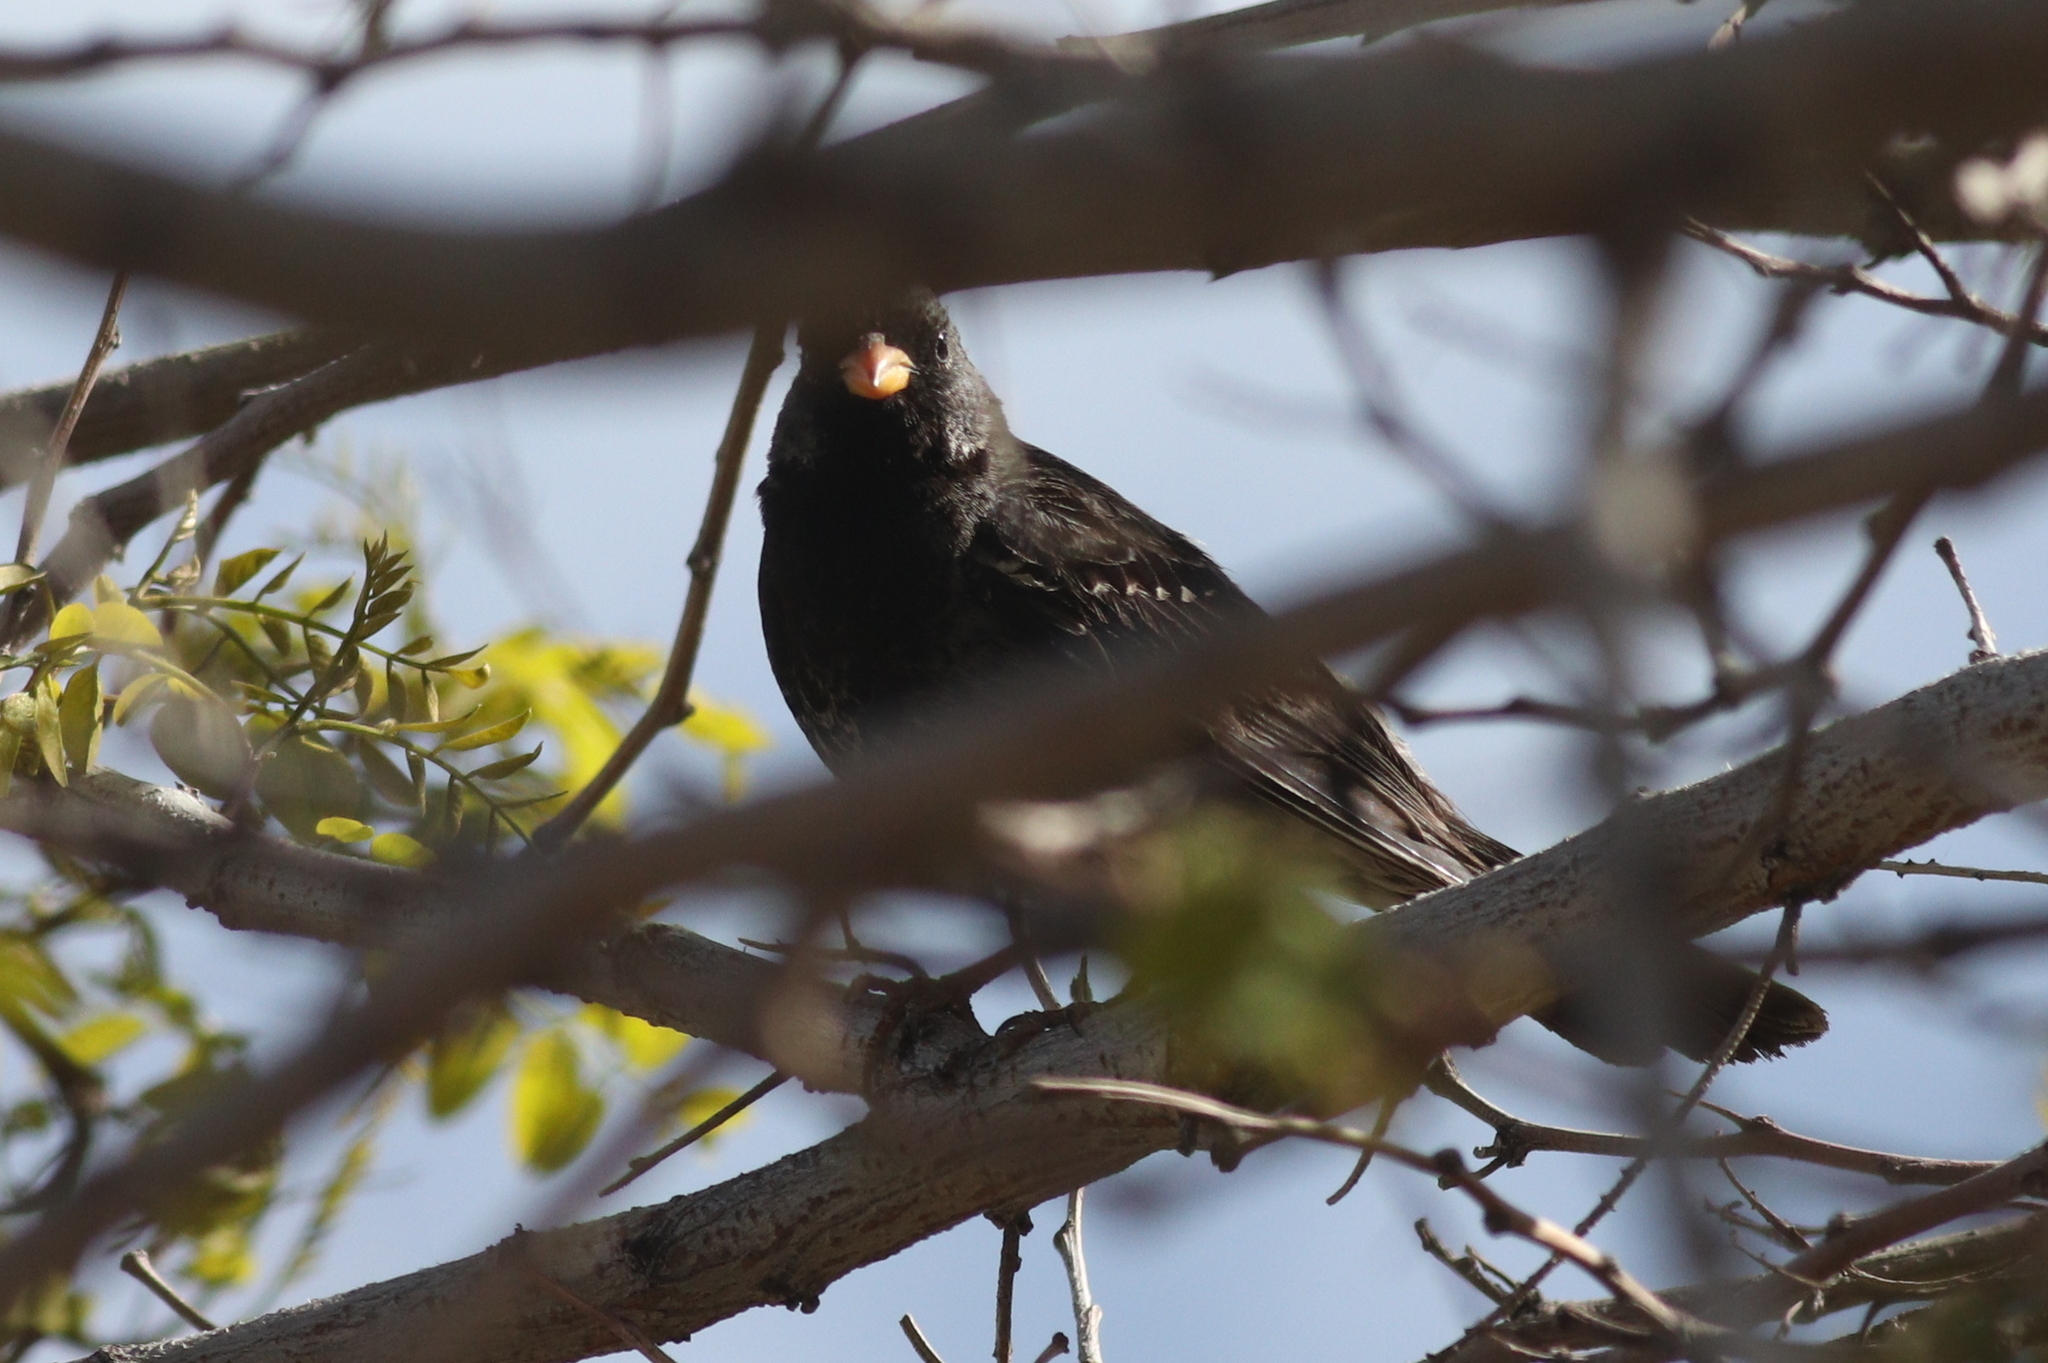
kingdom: Animalia
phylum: Chordata
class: Aves
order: Passeriformes
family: Thraupidae
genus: Rhopospina
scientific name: Rhopospina fruticeti
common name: Mourning sierra finch
